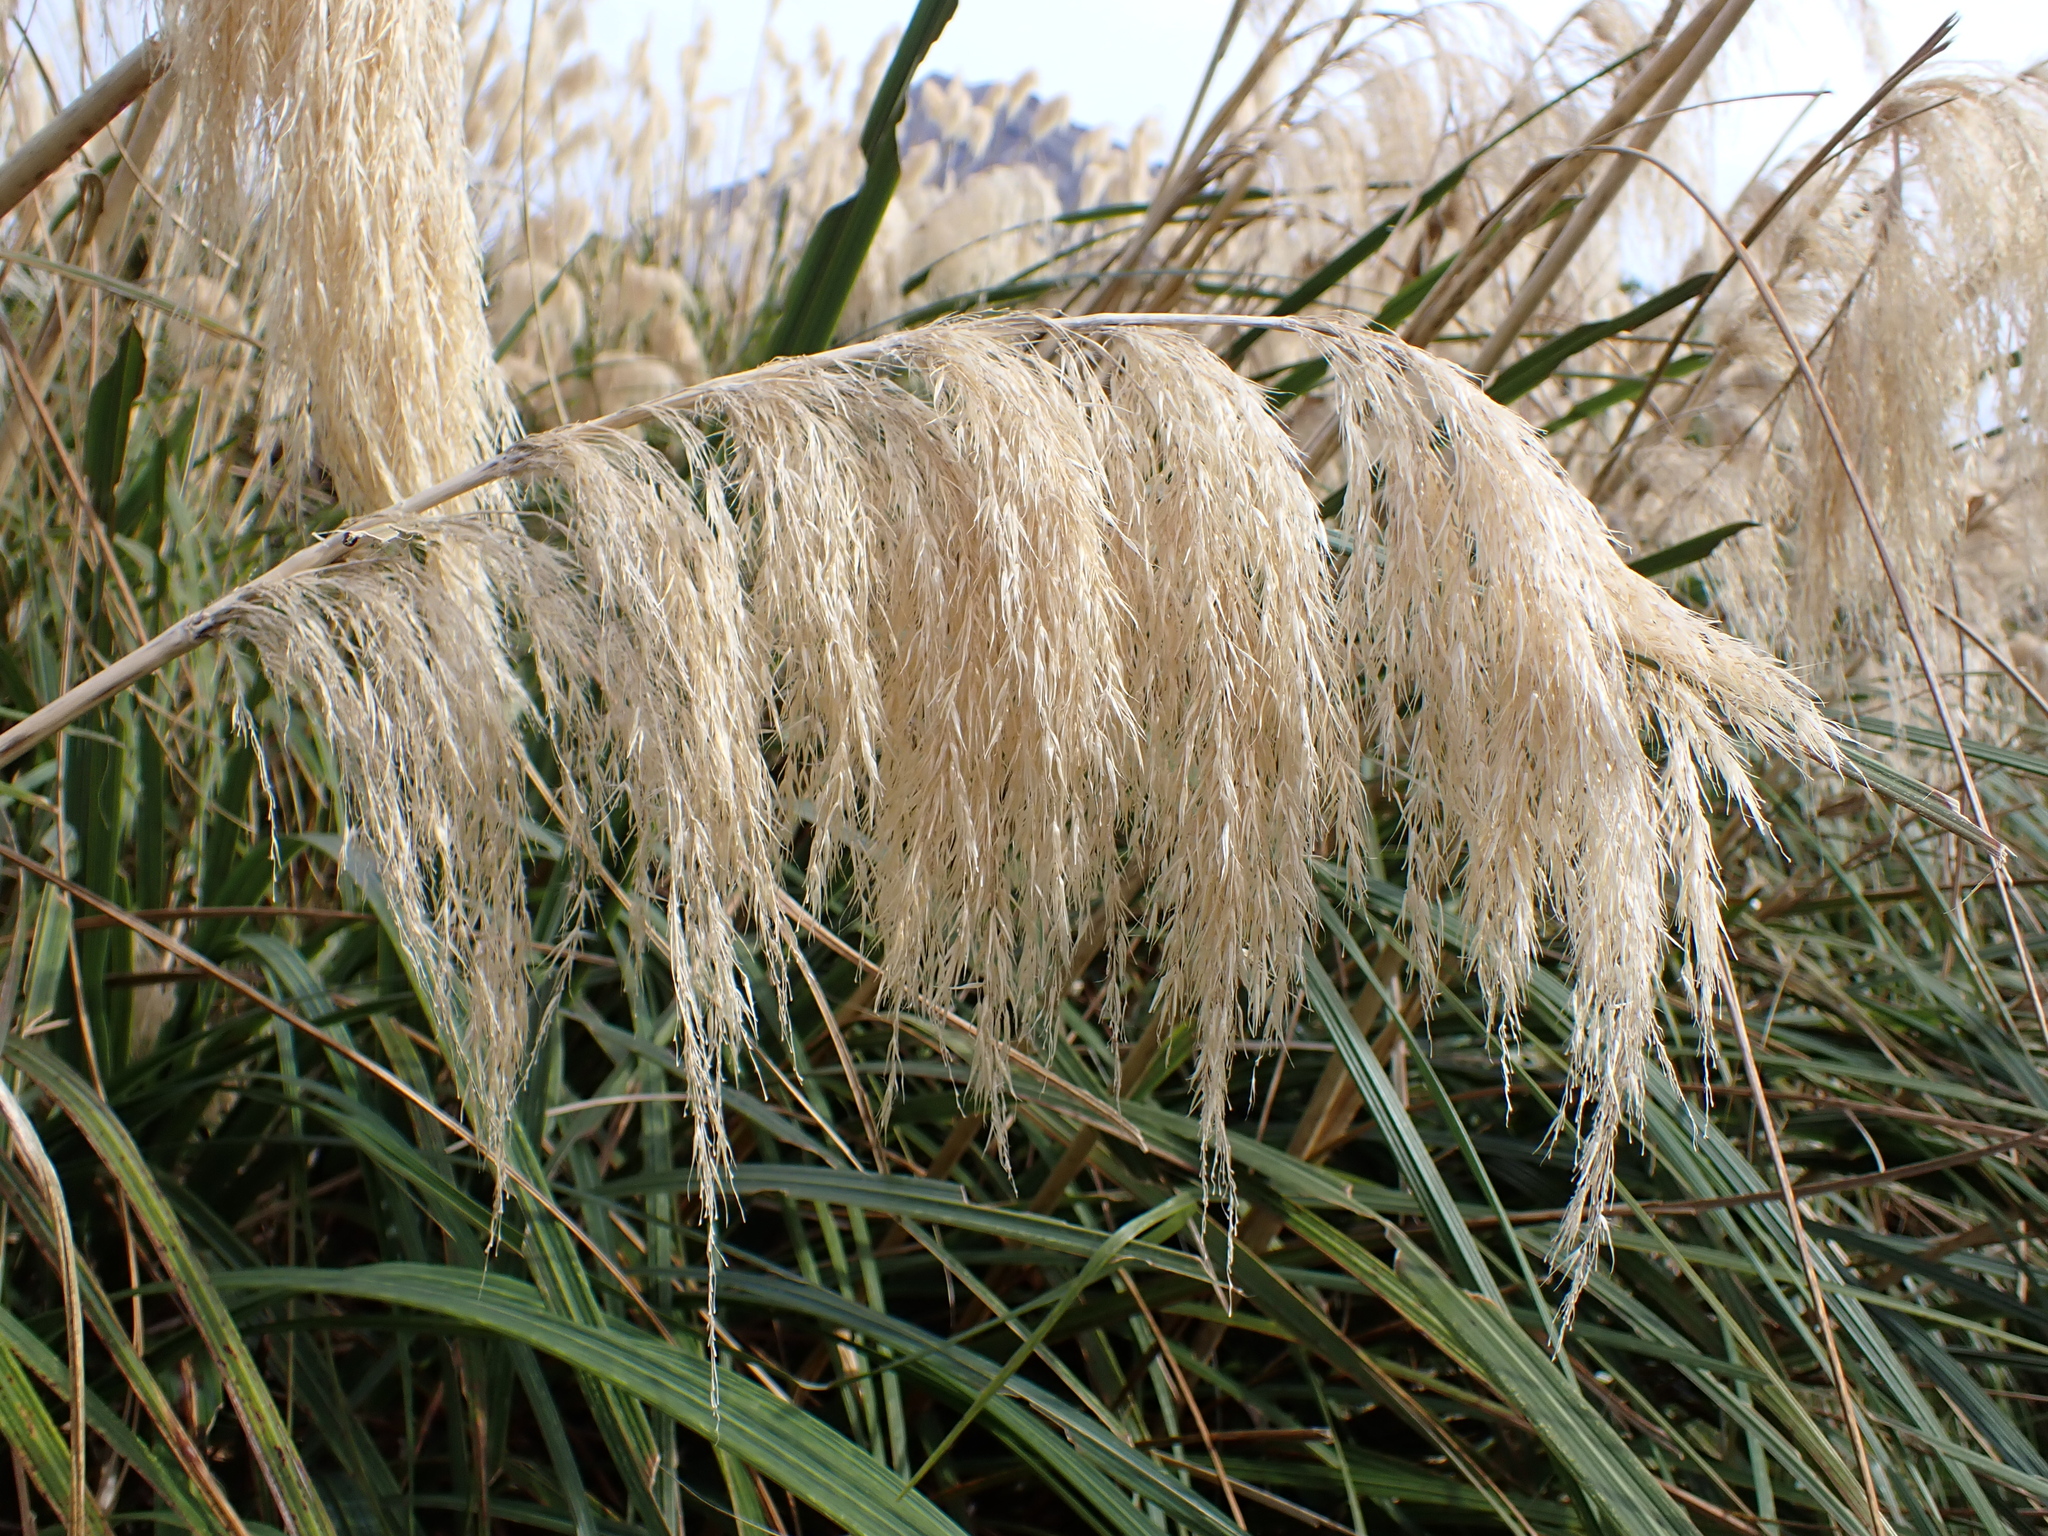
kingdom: Plantae
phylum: Tracheophyta
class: Liliopsida
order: Poales
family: Poaceae
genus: Austroderia
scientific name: Austroderia fulvida
